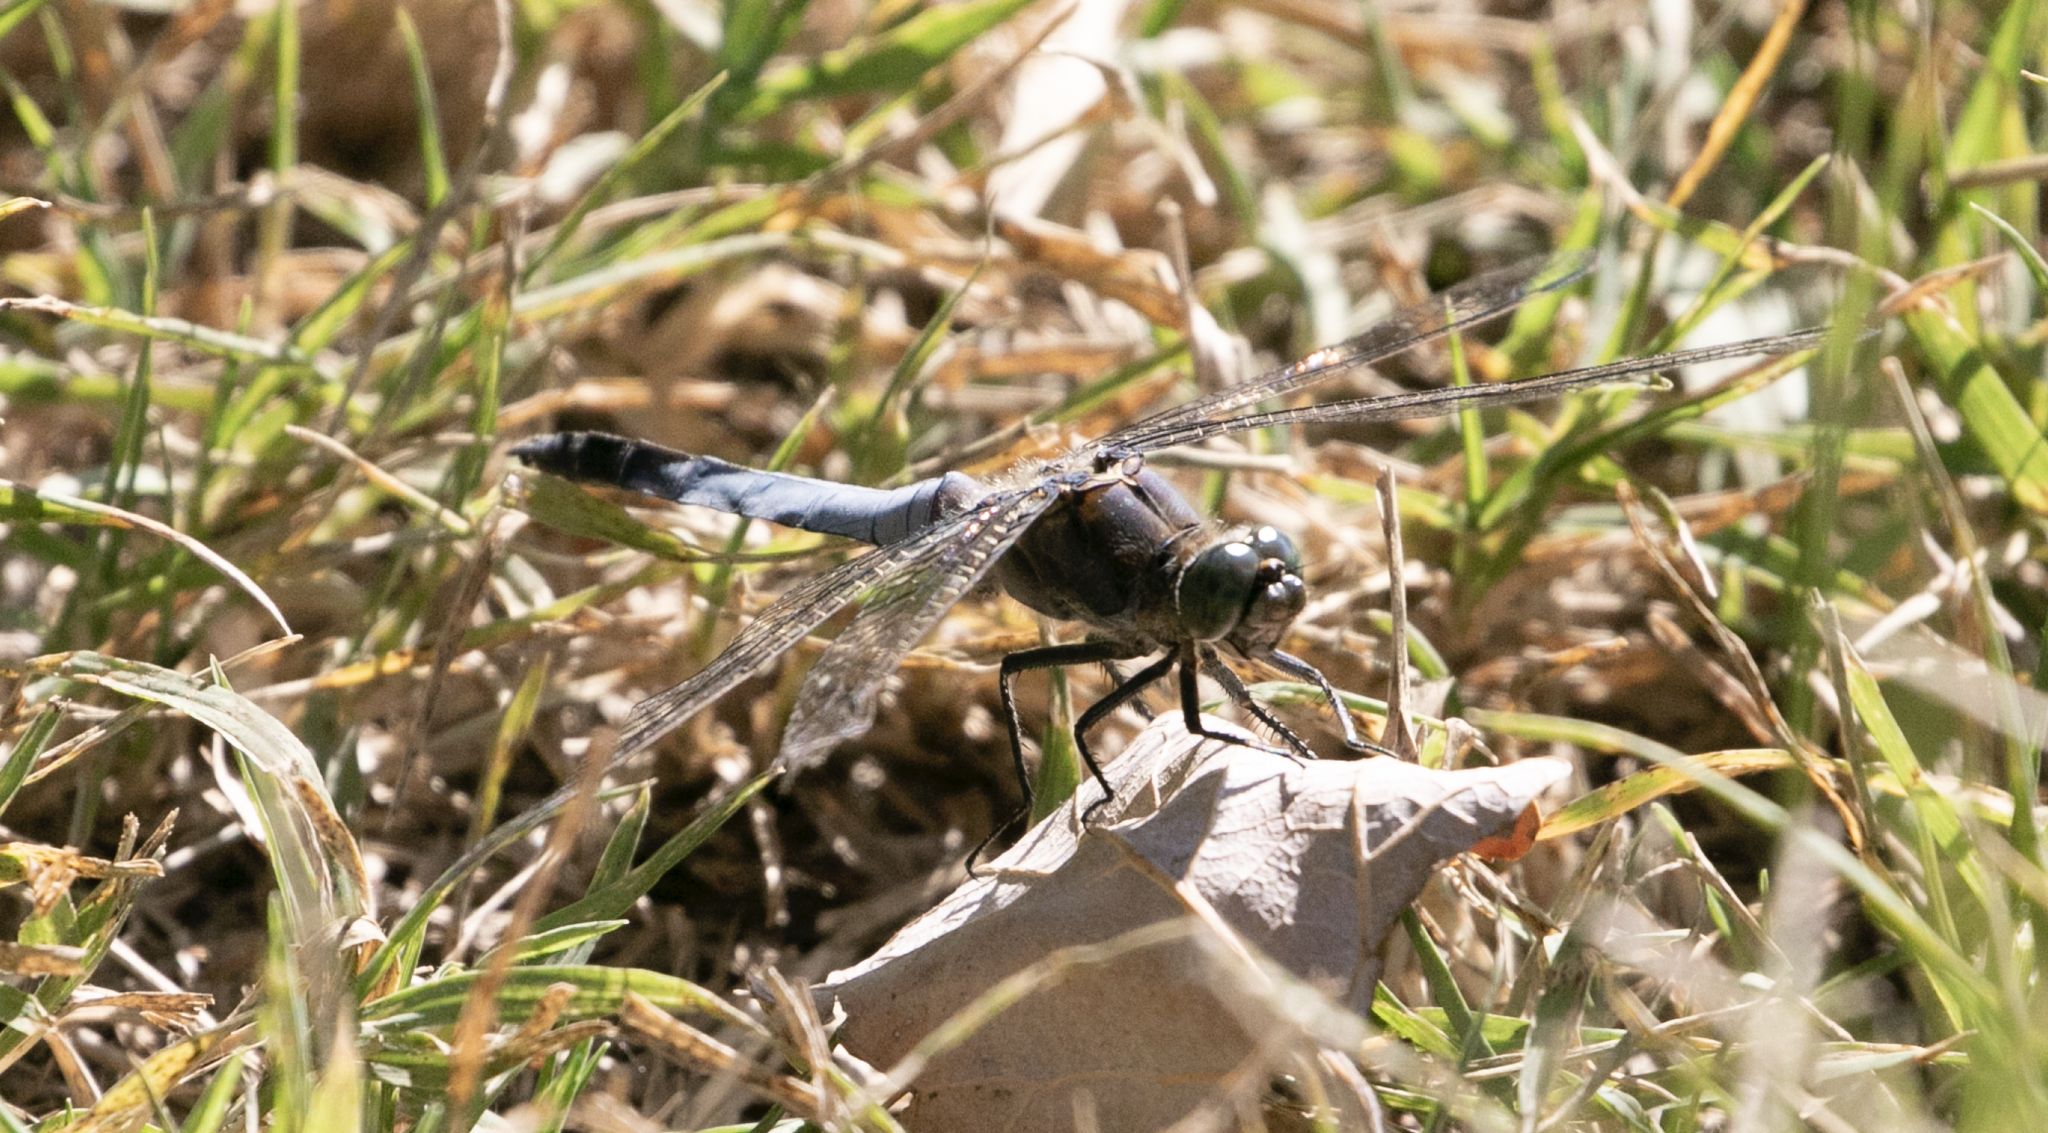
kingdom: Animalia
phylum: Arthropoda
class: Insecta
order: Odonata
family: Libellulidae
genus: Orthetrum
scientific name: Orthetrum cancellatum
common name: Black-tailed skimmer
